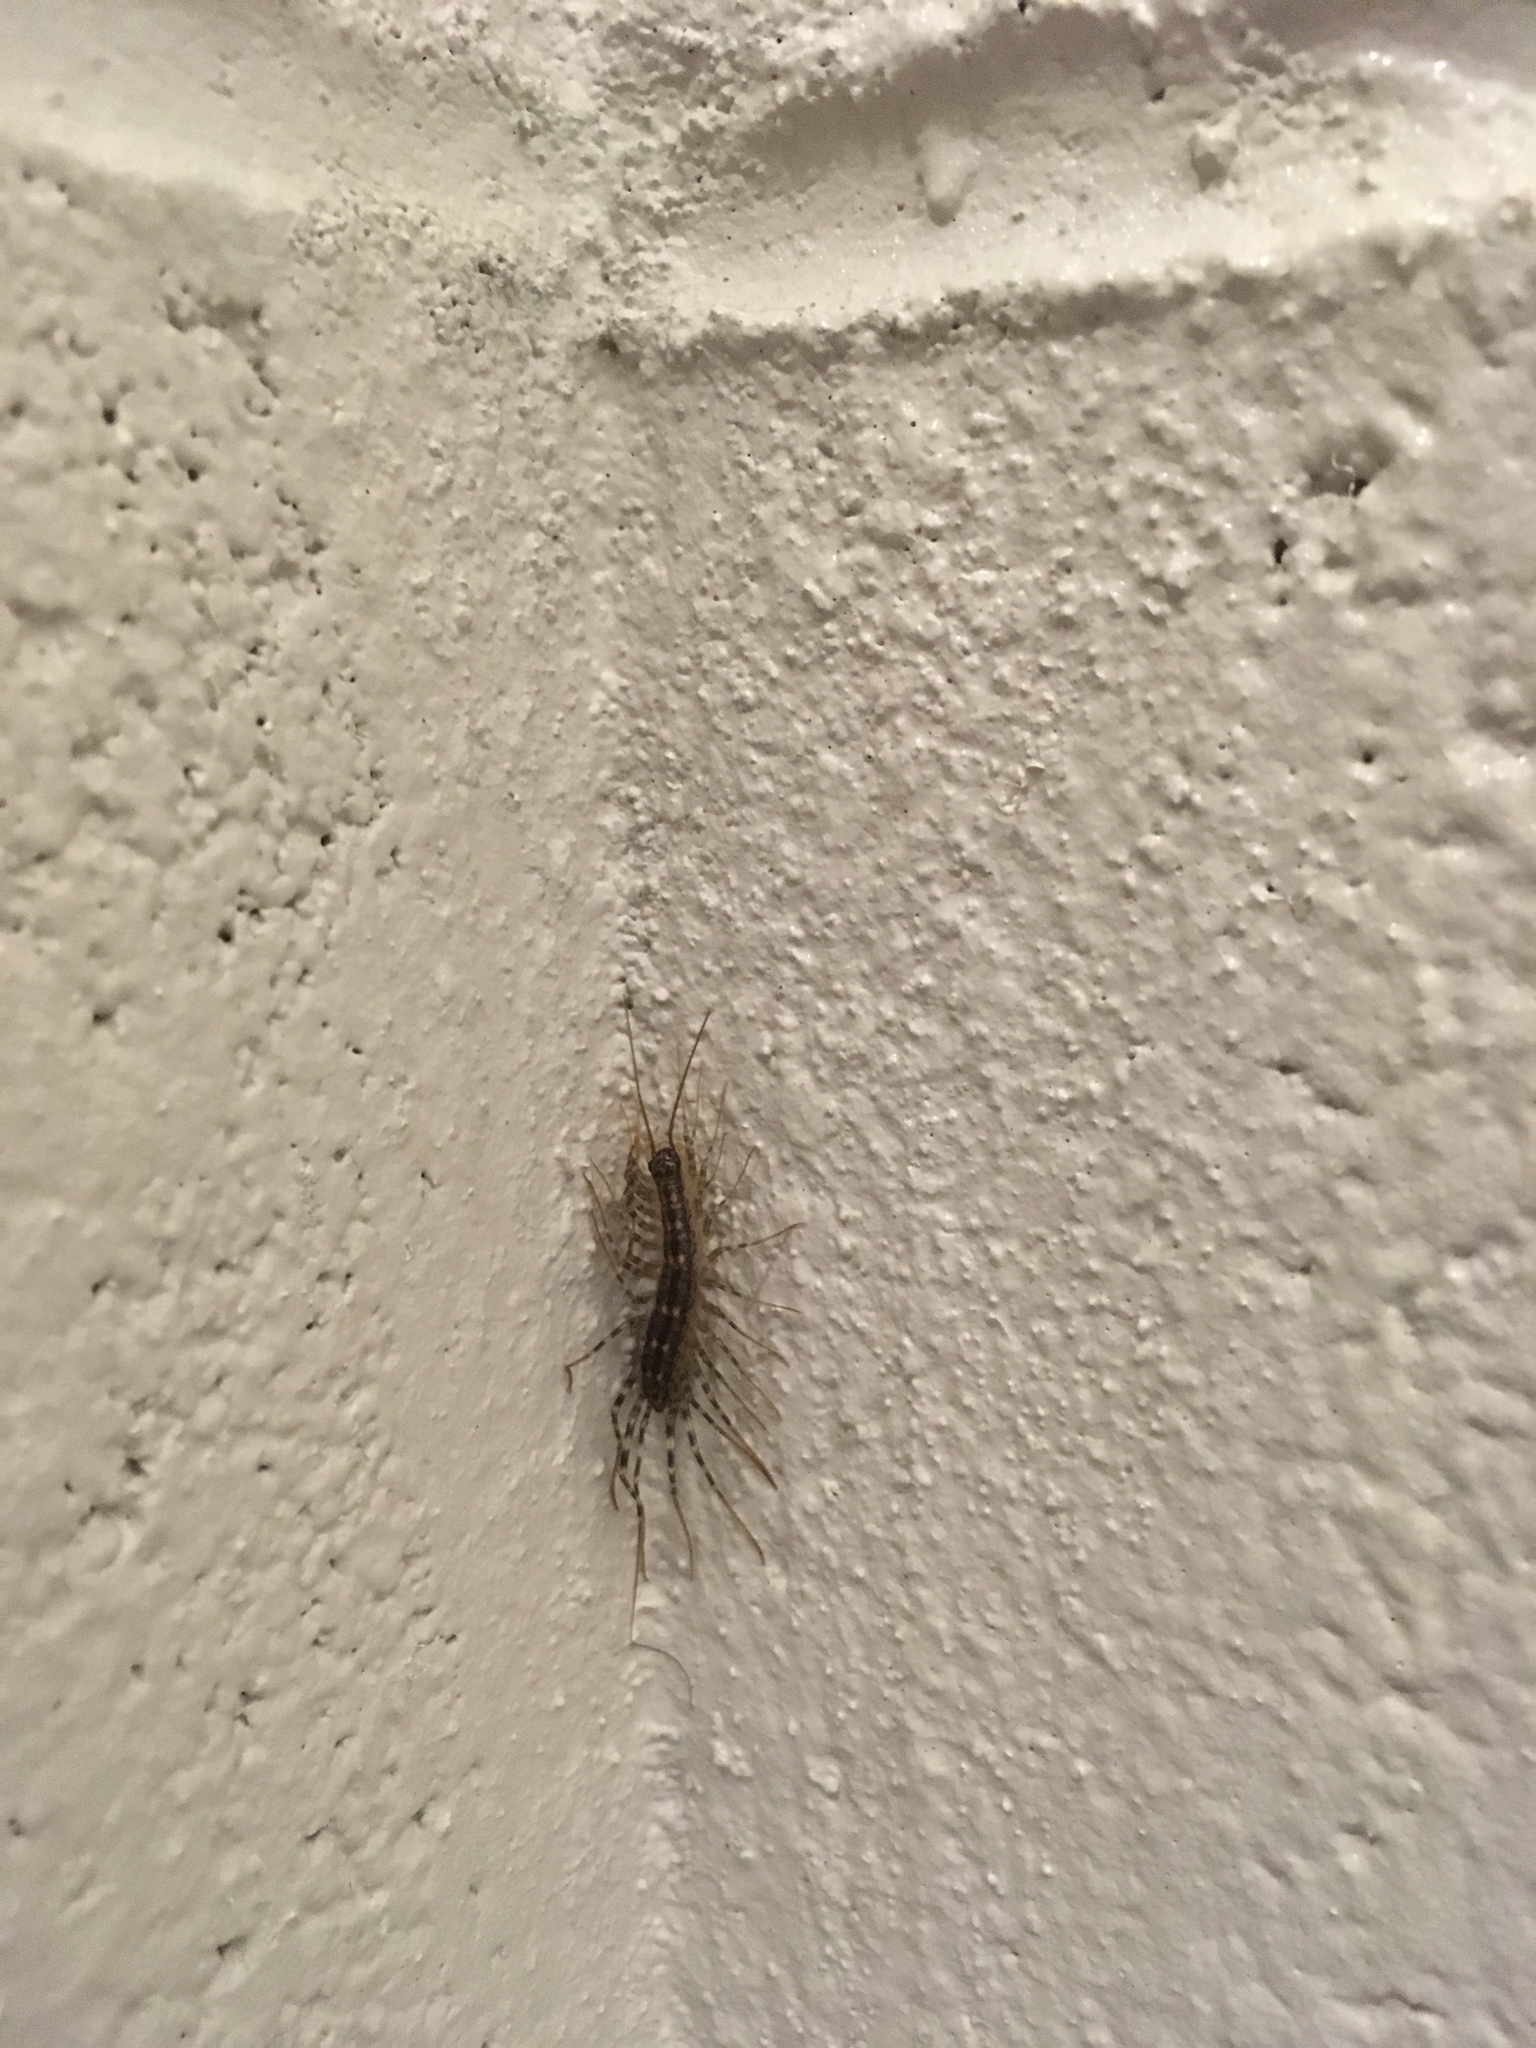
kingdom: Animalia
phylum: Arthropoda
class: Chilopoda
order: Scutigeromorpha
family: Scutigeridae
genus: Scutigera
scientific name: Scutigera coleoptrata
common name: House centipede
